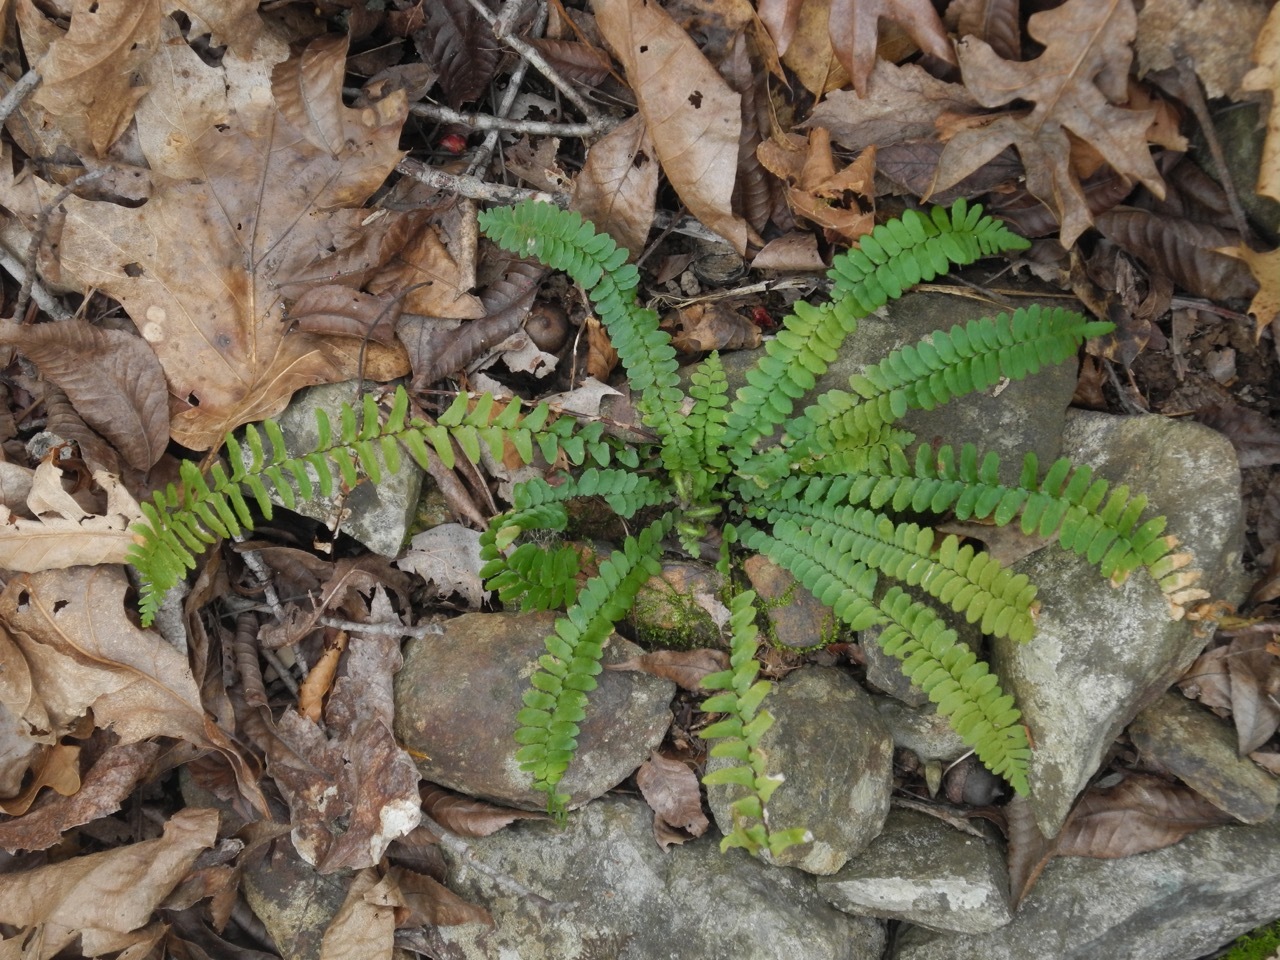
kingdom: Plantae
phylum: Tracheophyta
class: Polypodiopsida
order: Polypodiales
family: Aspleniaceae
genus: Asplenium
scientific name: Asplenium platyneuron
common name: Ebony spleenwort
